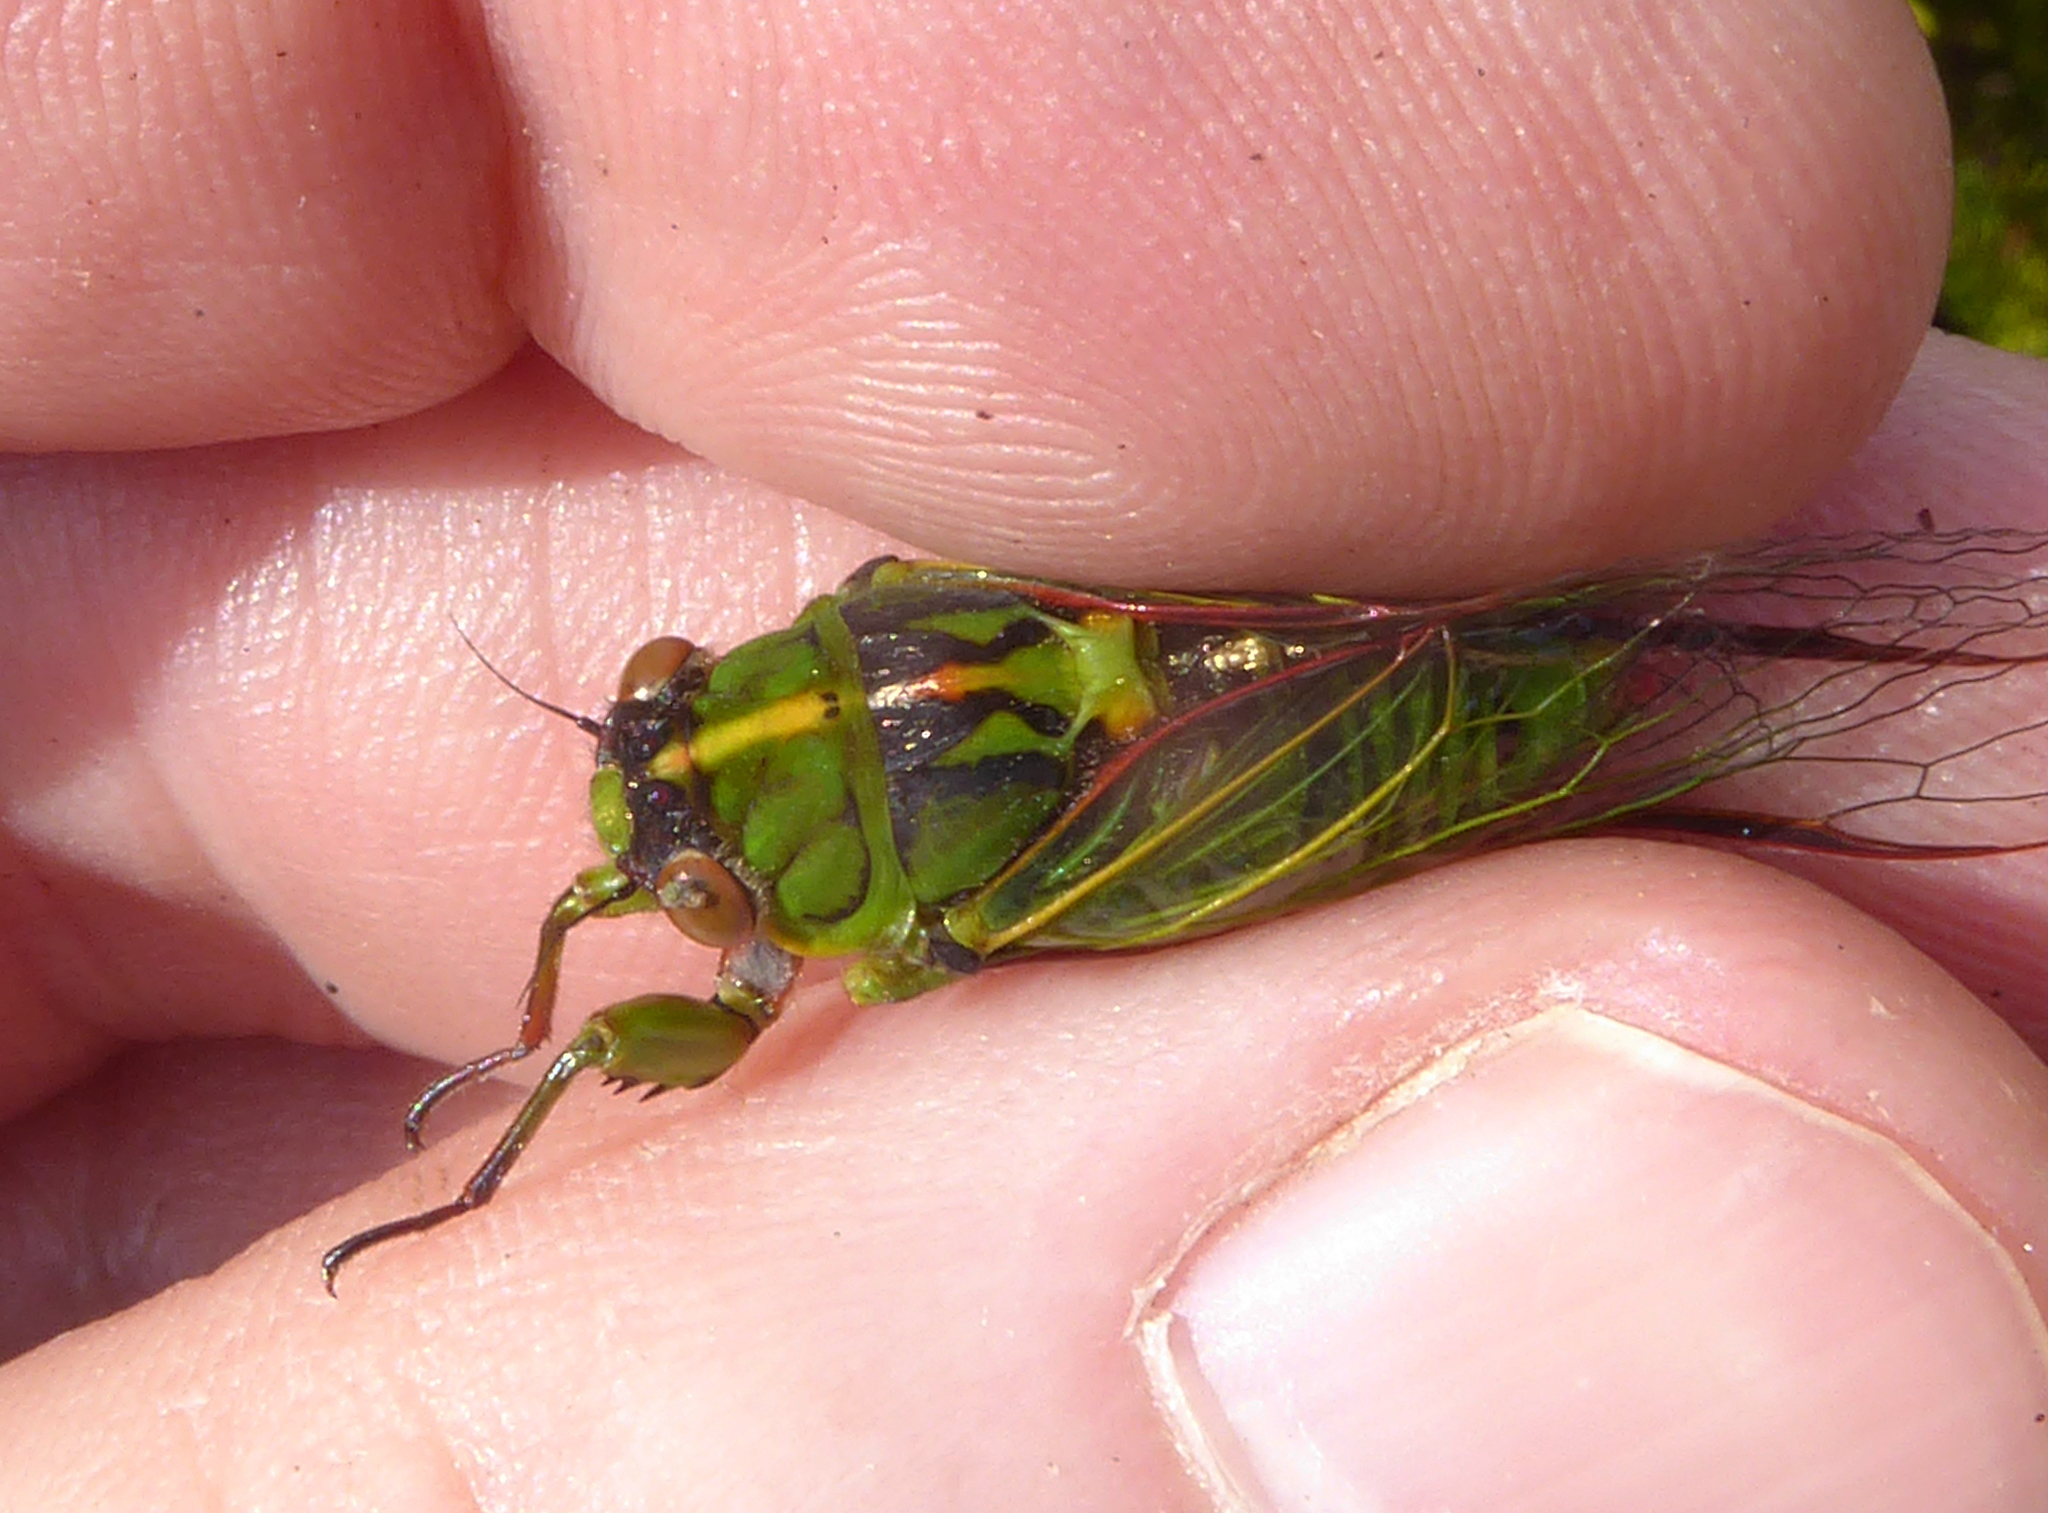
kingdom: Animalia
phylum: Arthropoda
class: Insecta
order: Hemiptera
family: Cicadidae
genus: Kikihia
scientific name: Kikihia subalpina
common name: Chathams cicada
